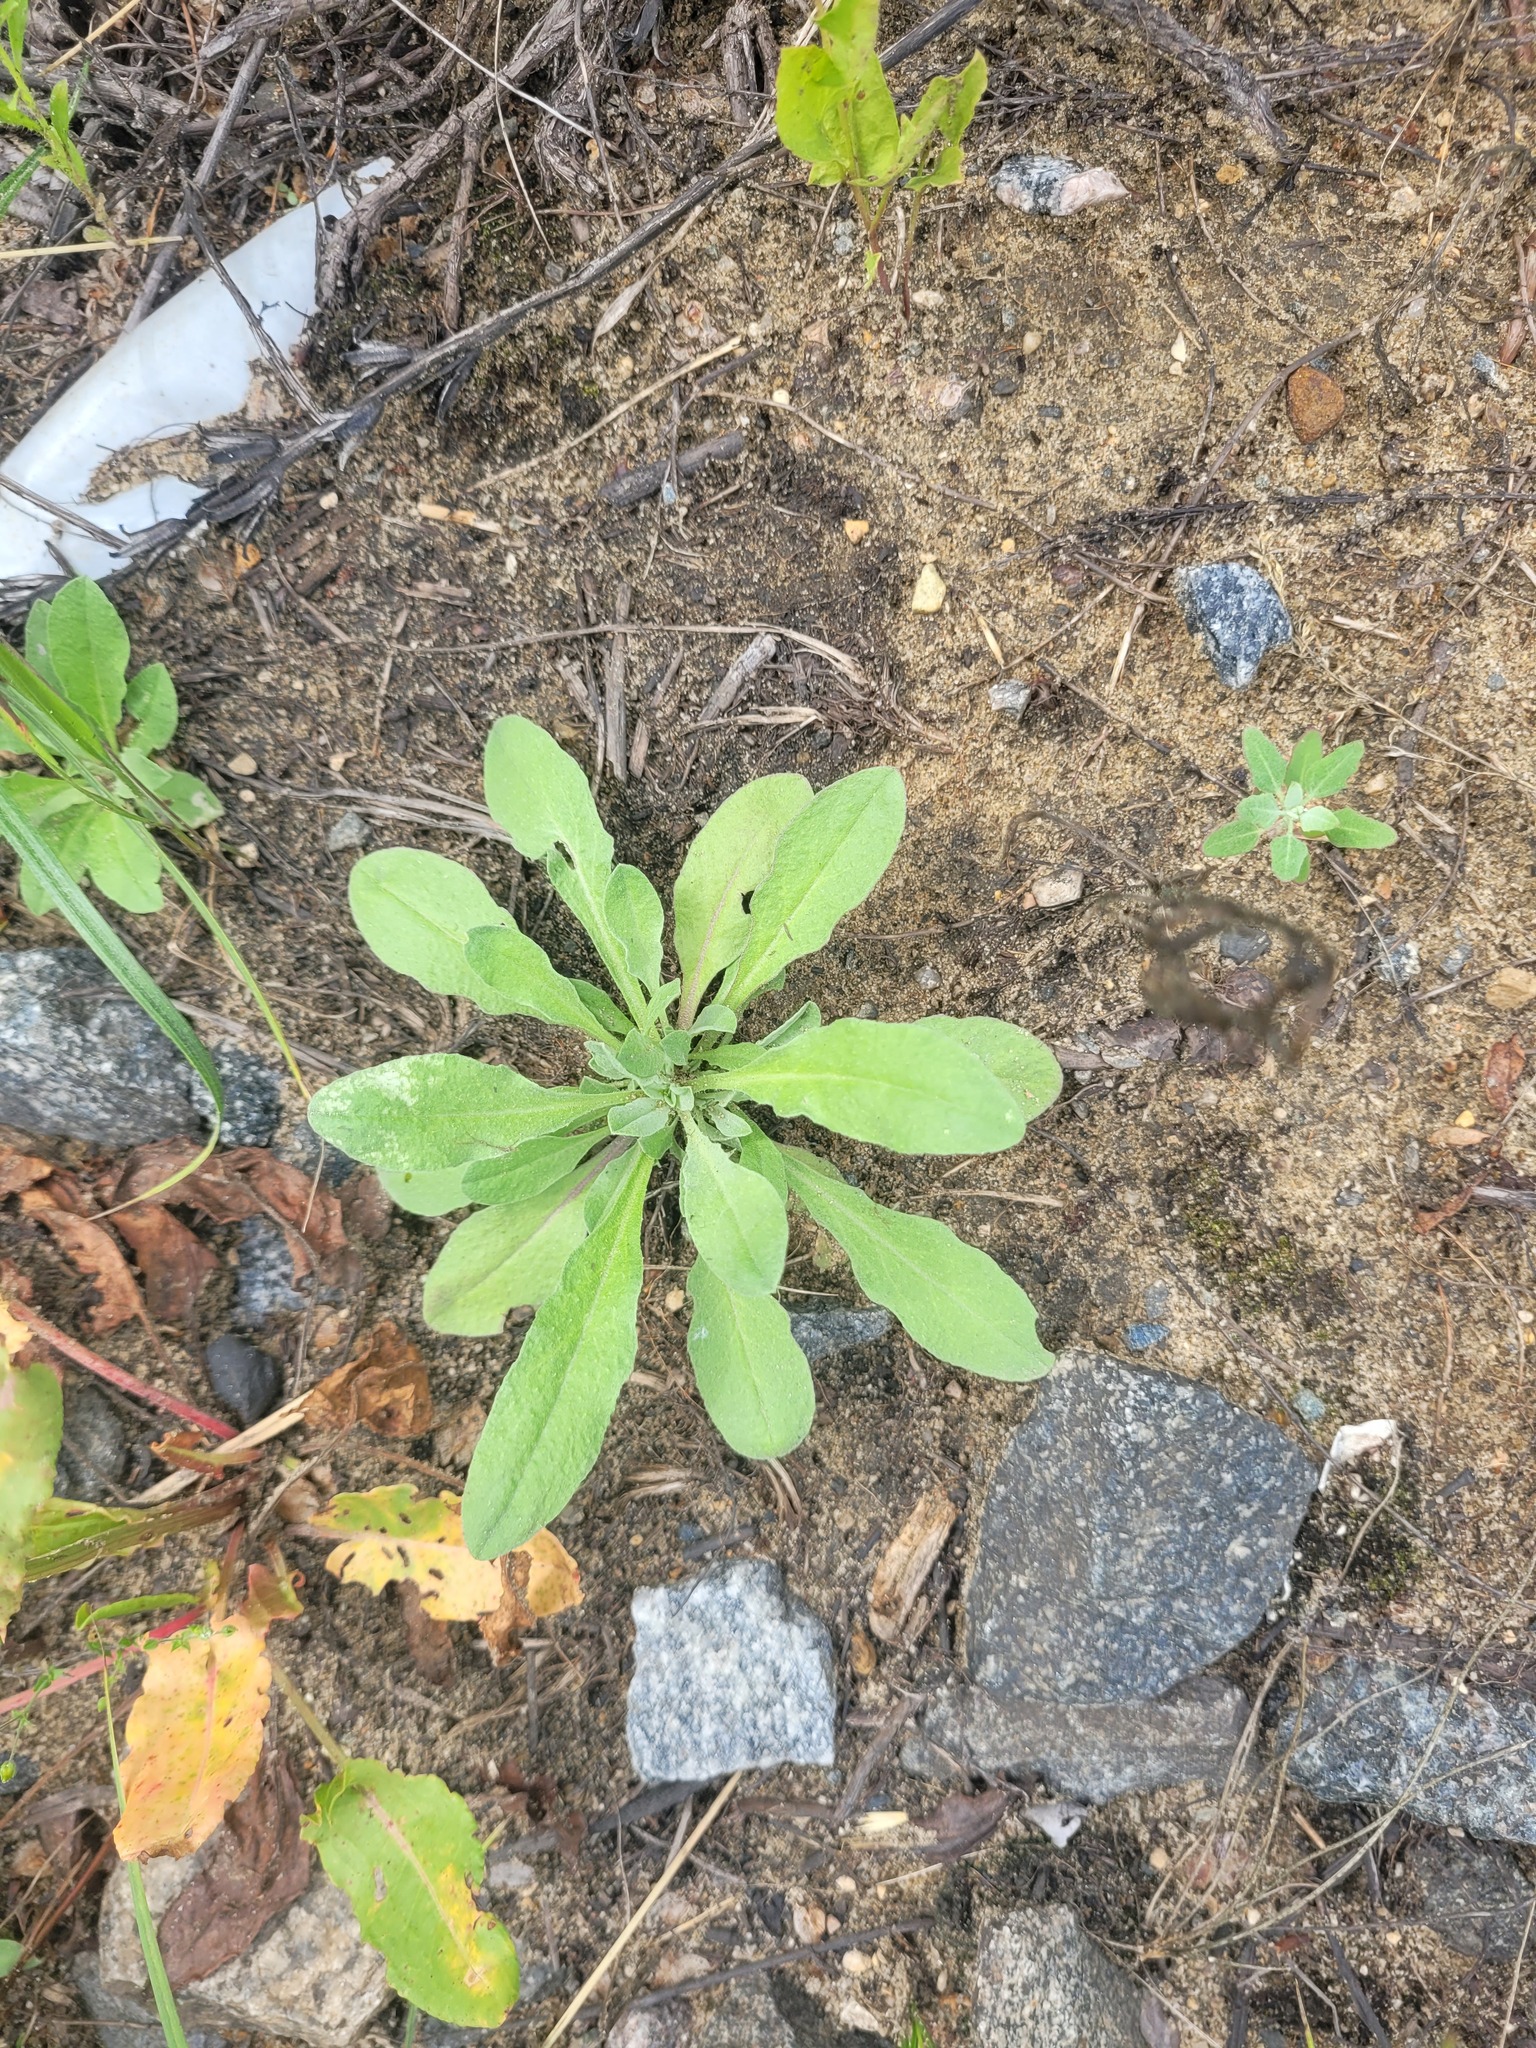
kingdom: Plantae
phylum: Tracheophyta
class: Magnoliopsida
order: Brassicales
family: Brassicaceae
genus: Berteroa
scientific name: Berteroa incana
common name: Hoary alison
